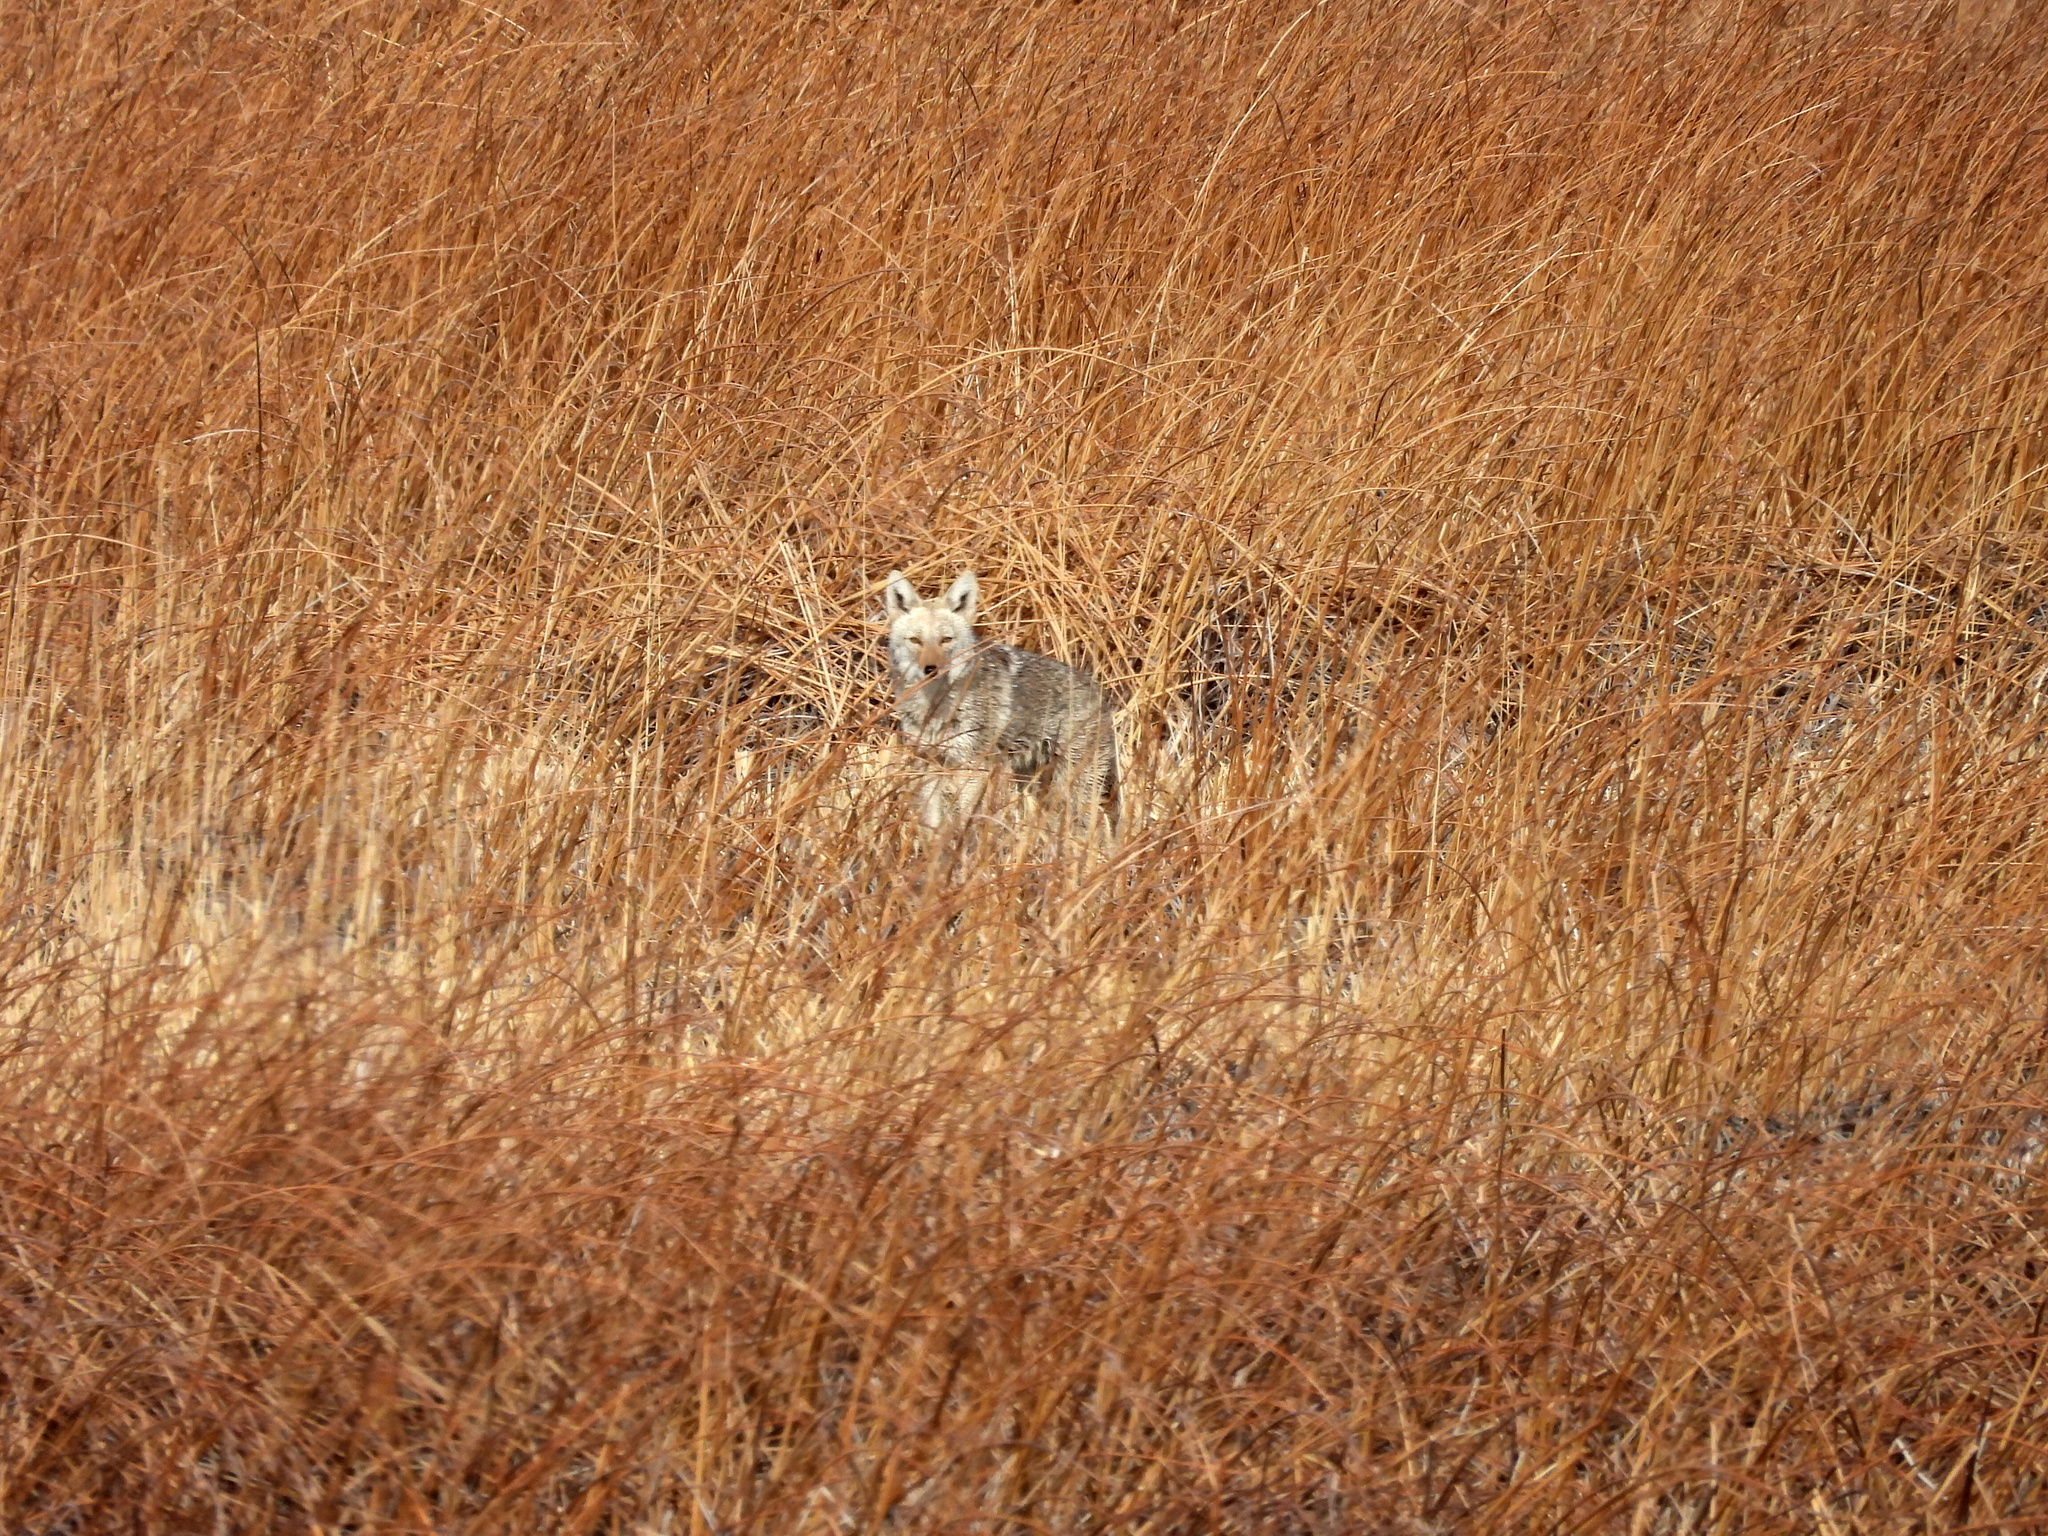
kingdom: Animalia
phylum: Chordata
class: Mammalia
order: Carnivora
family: Canidae
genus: Canis
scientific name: Canis latrans
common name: Coyote
